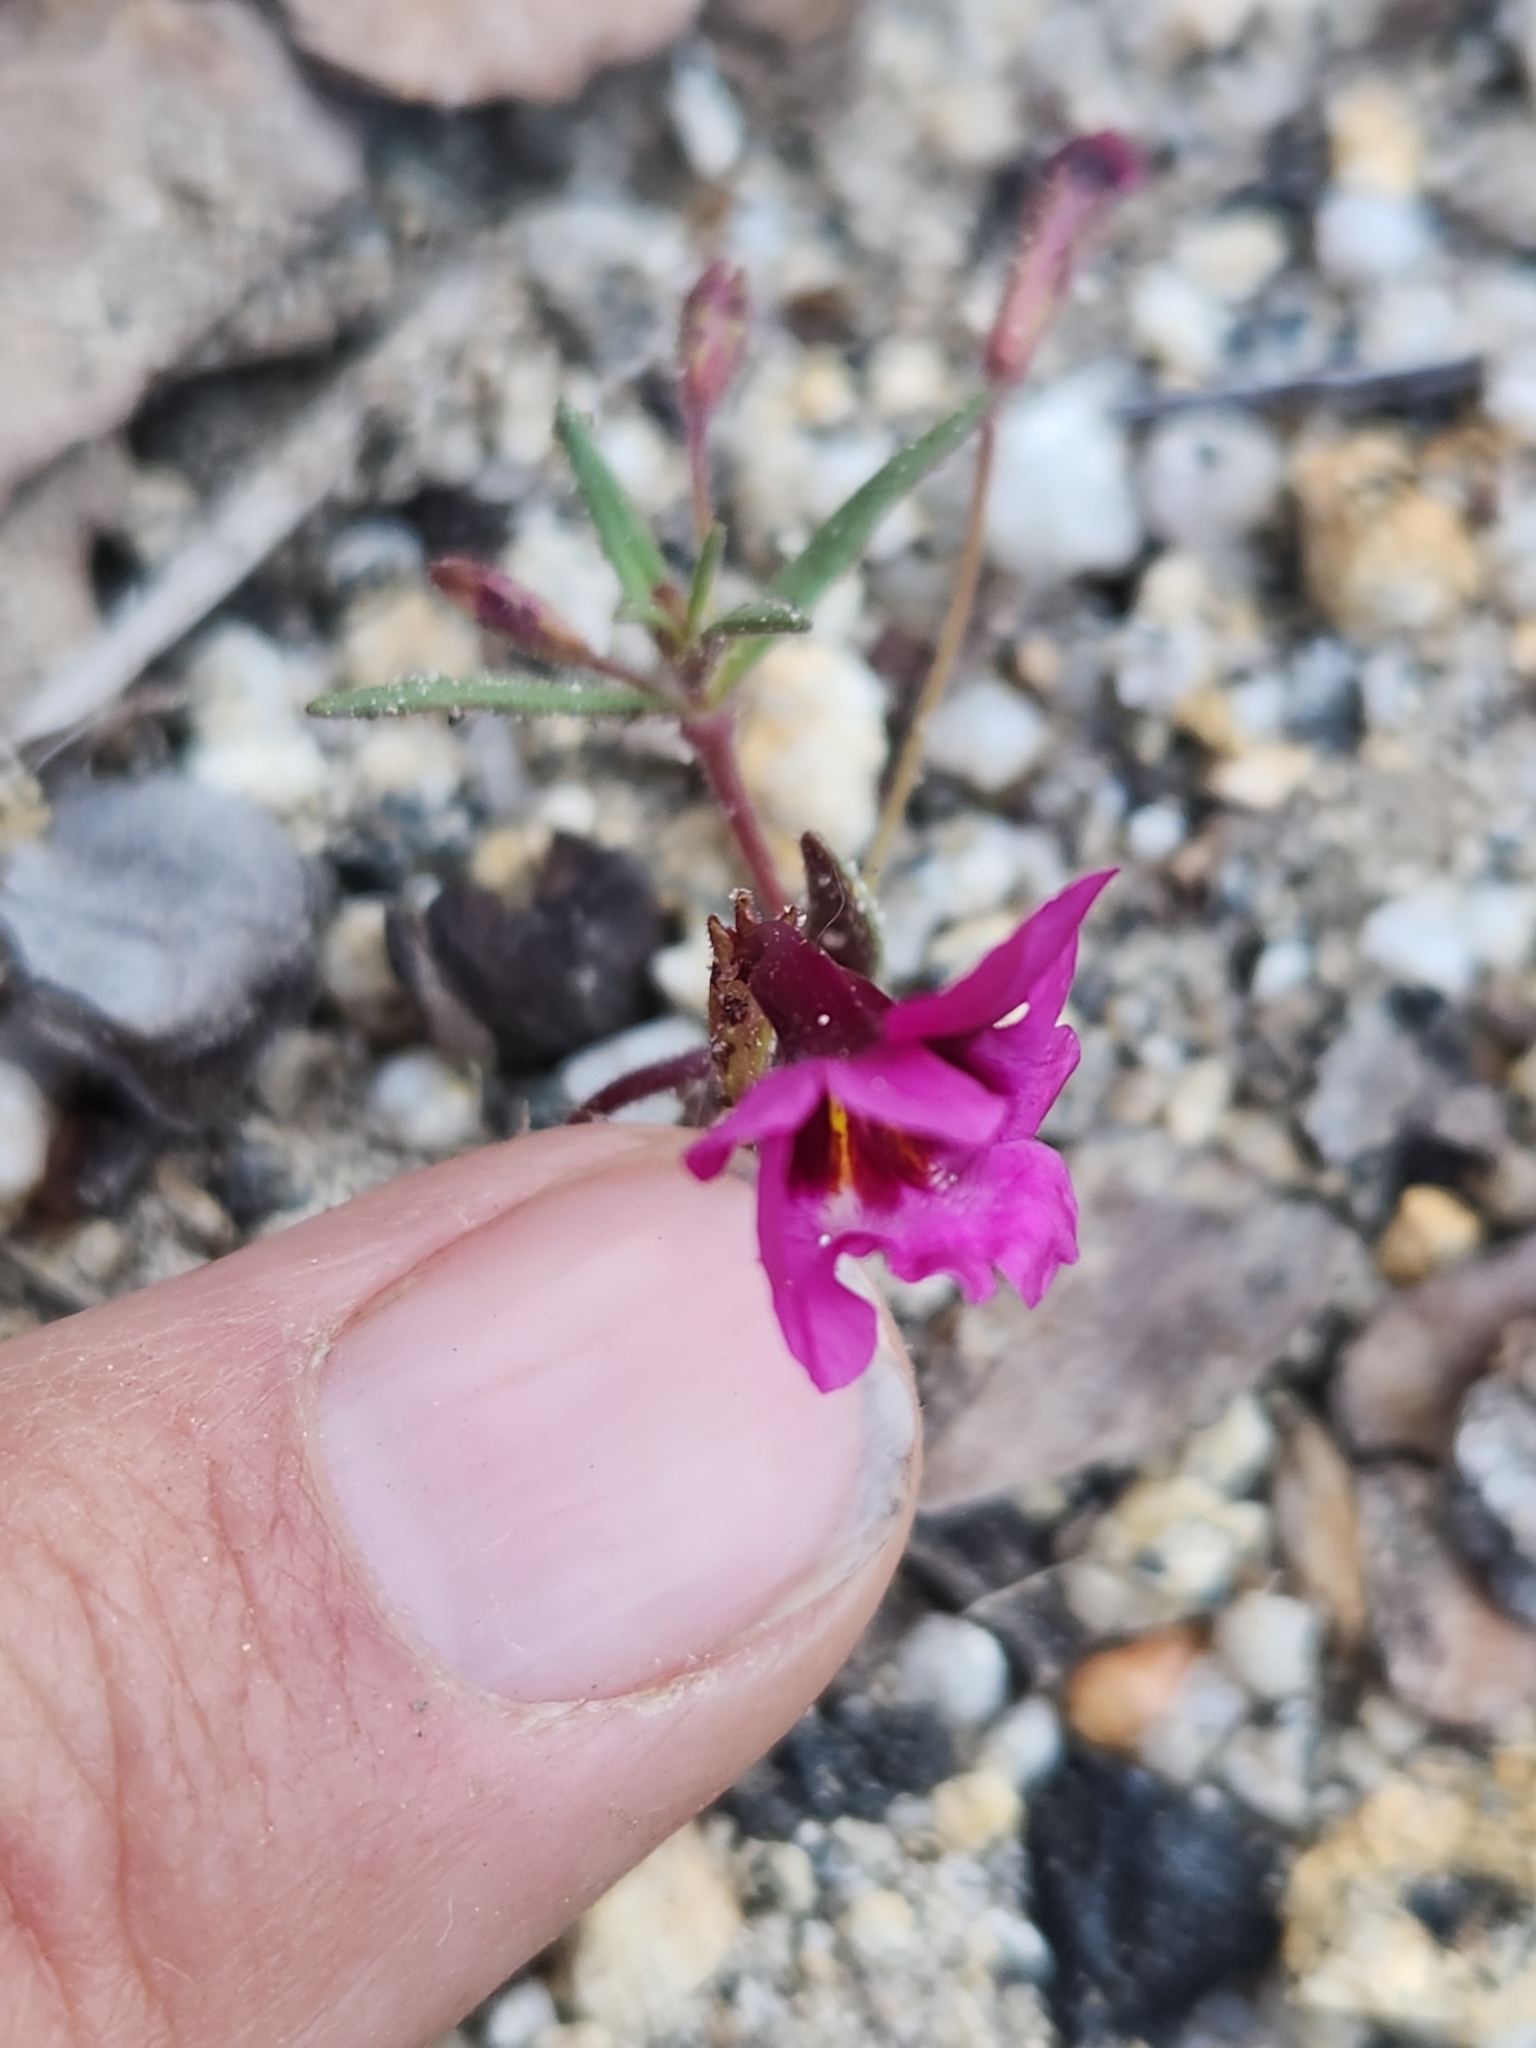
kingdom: Plantae
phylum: Tracheophyta
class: Magnoliopsida
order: Lamiales
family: Phrymaceae
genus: Diplacus
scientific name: Diplacus fremontii
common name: Fremont's monkey-flower
